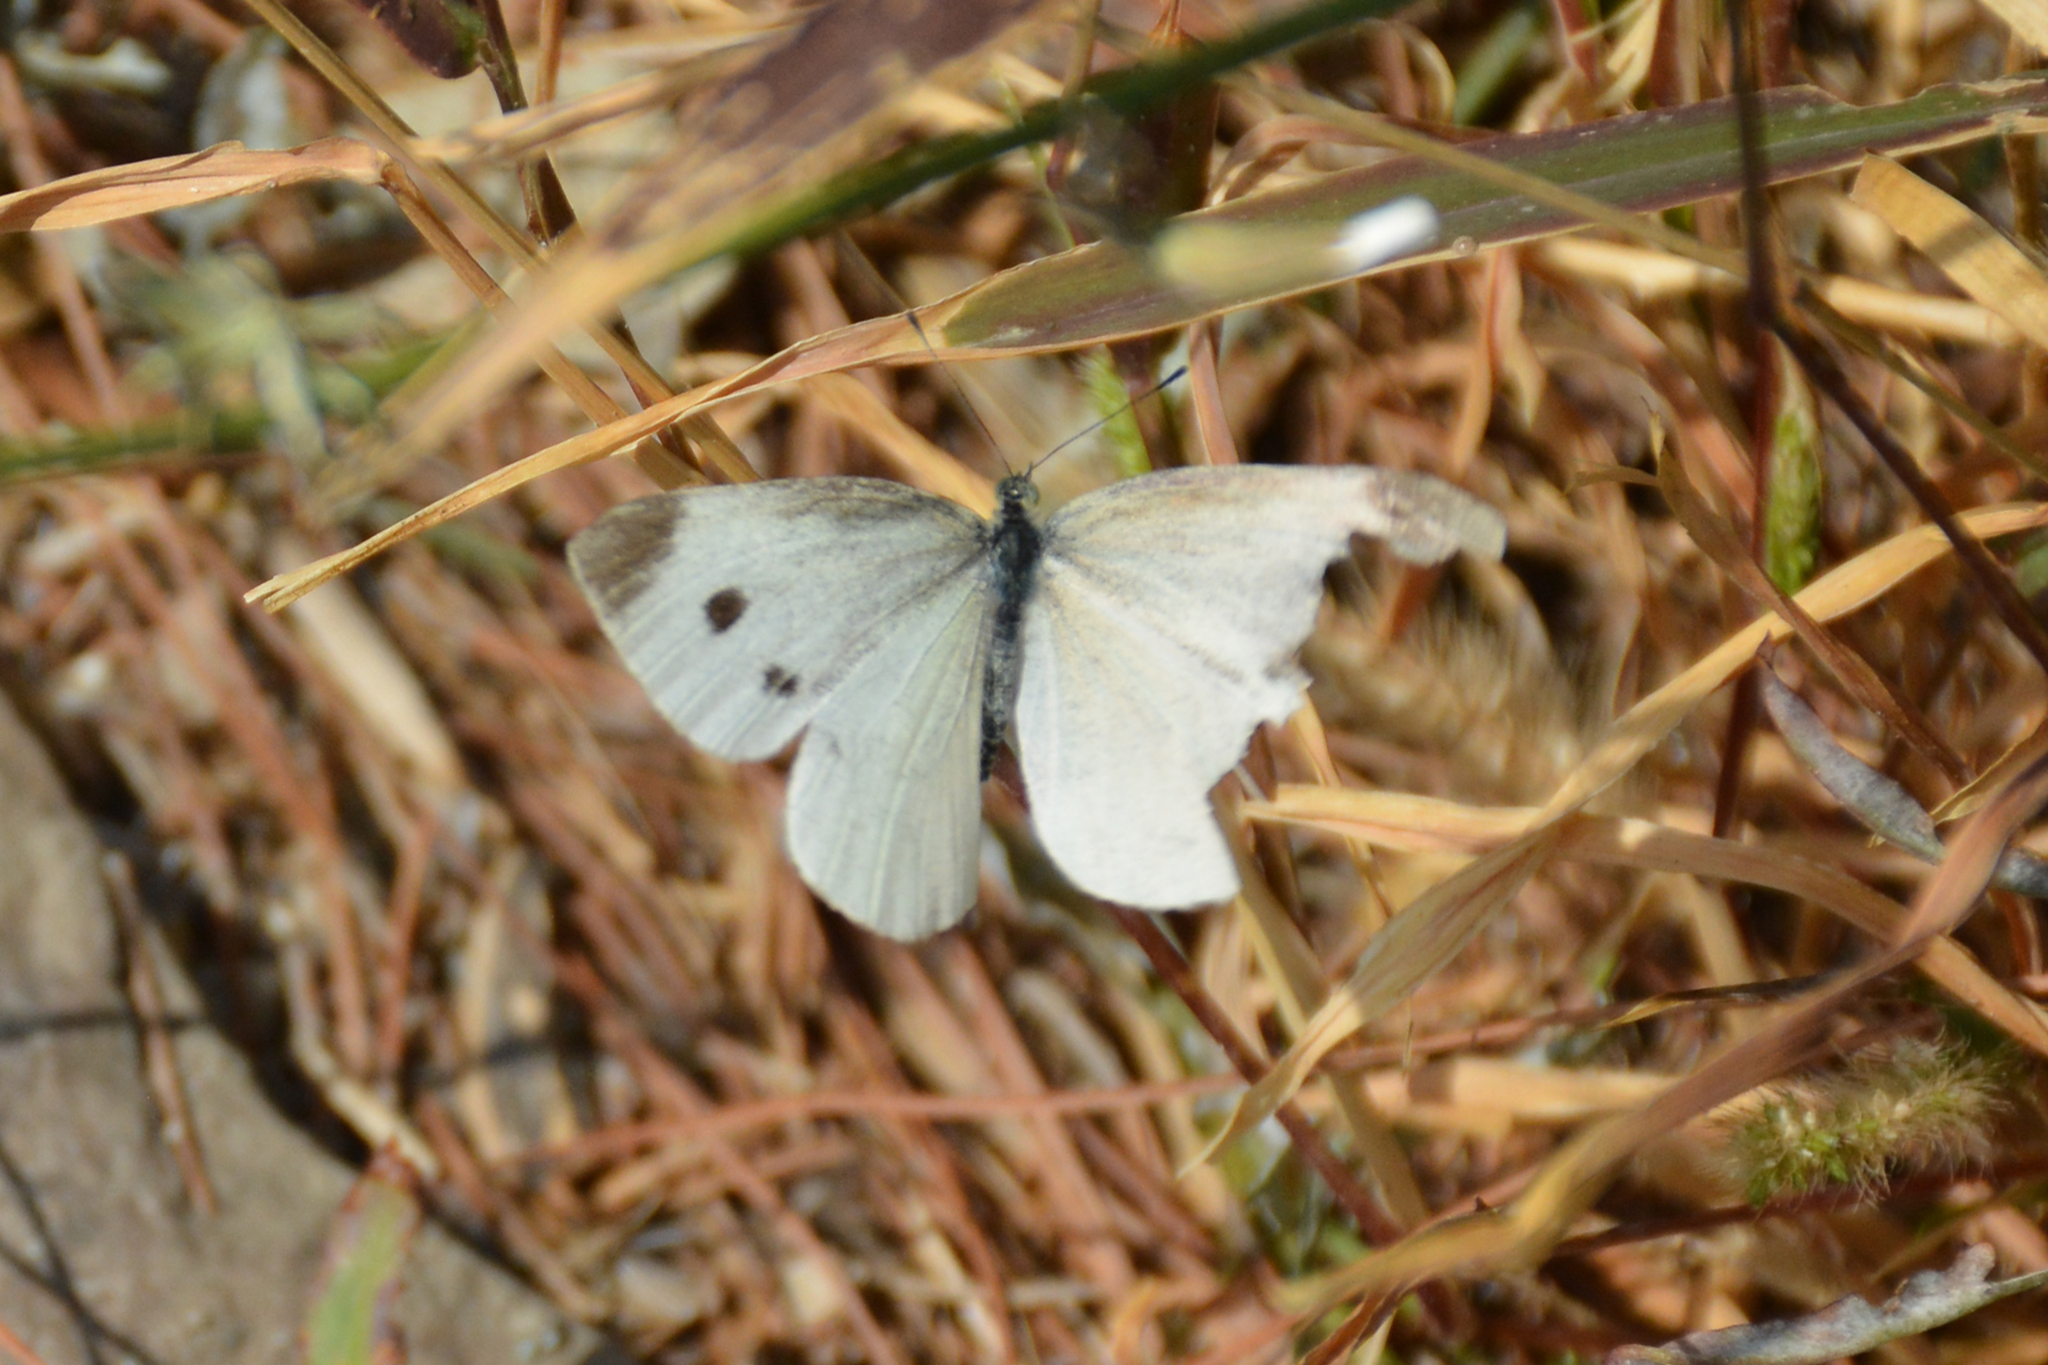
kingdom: Animalia
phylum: Arthropoda
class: Insecta
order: Lepidoptera
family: Pieridae
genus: Pieris
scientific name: Pieris rapae
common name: Small white
